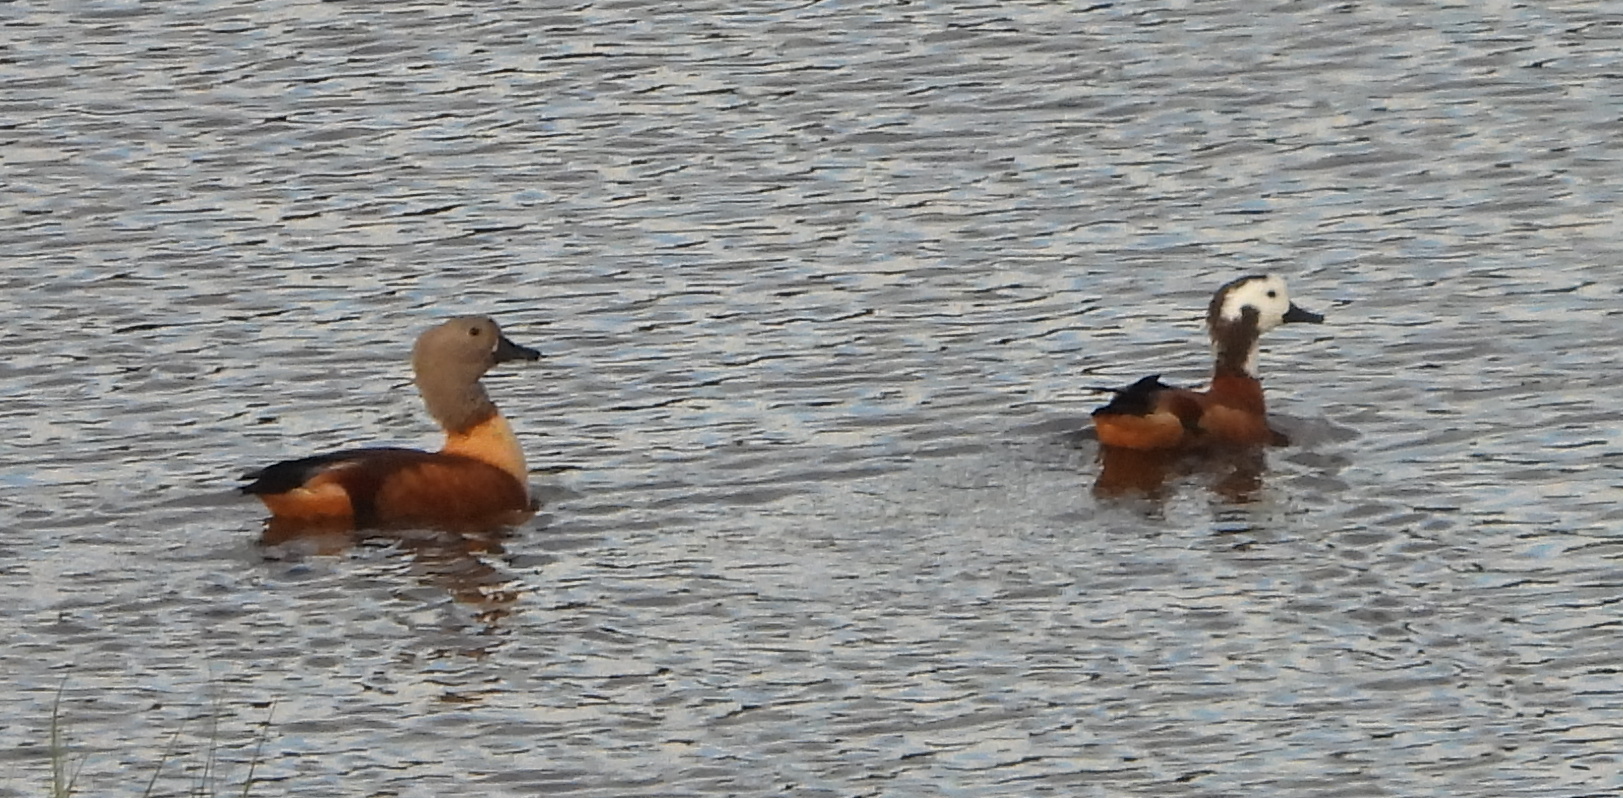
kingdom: Animalia
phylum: Chordata
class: Aves
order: Anseriformes
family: Anatidae
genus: Tadorna
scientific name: Tadorna cana
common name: South african shelduck
